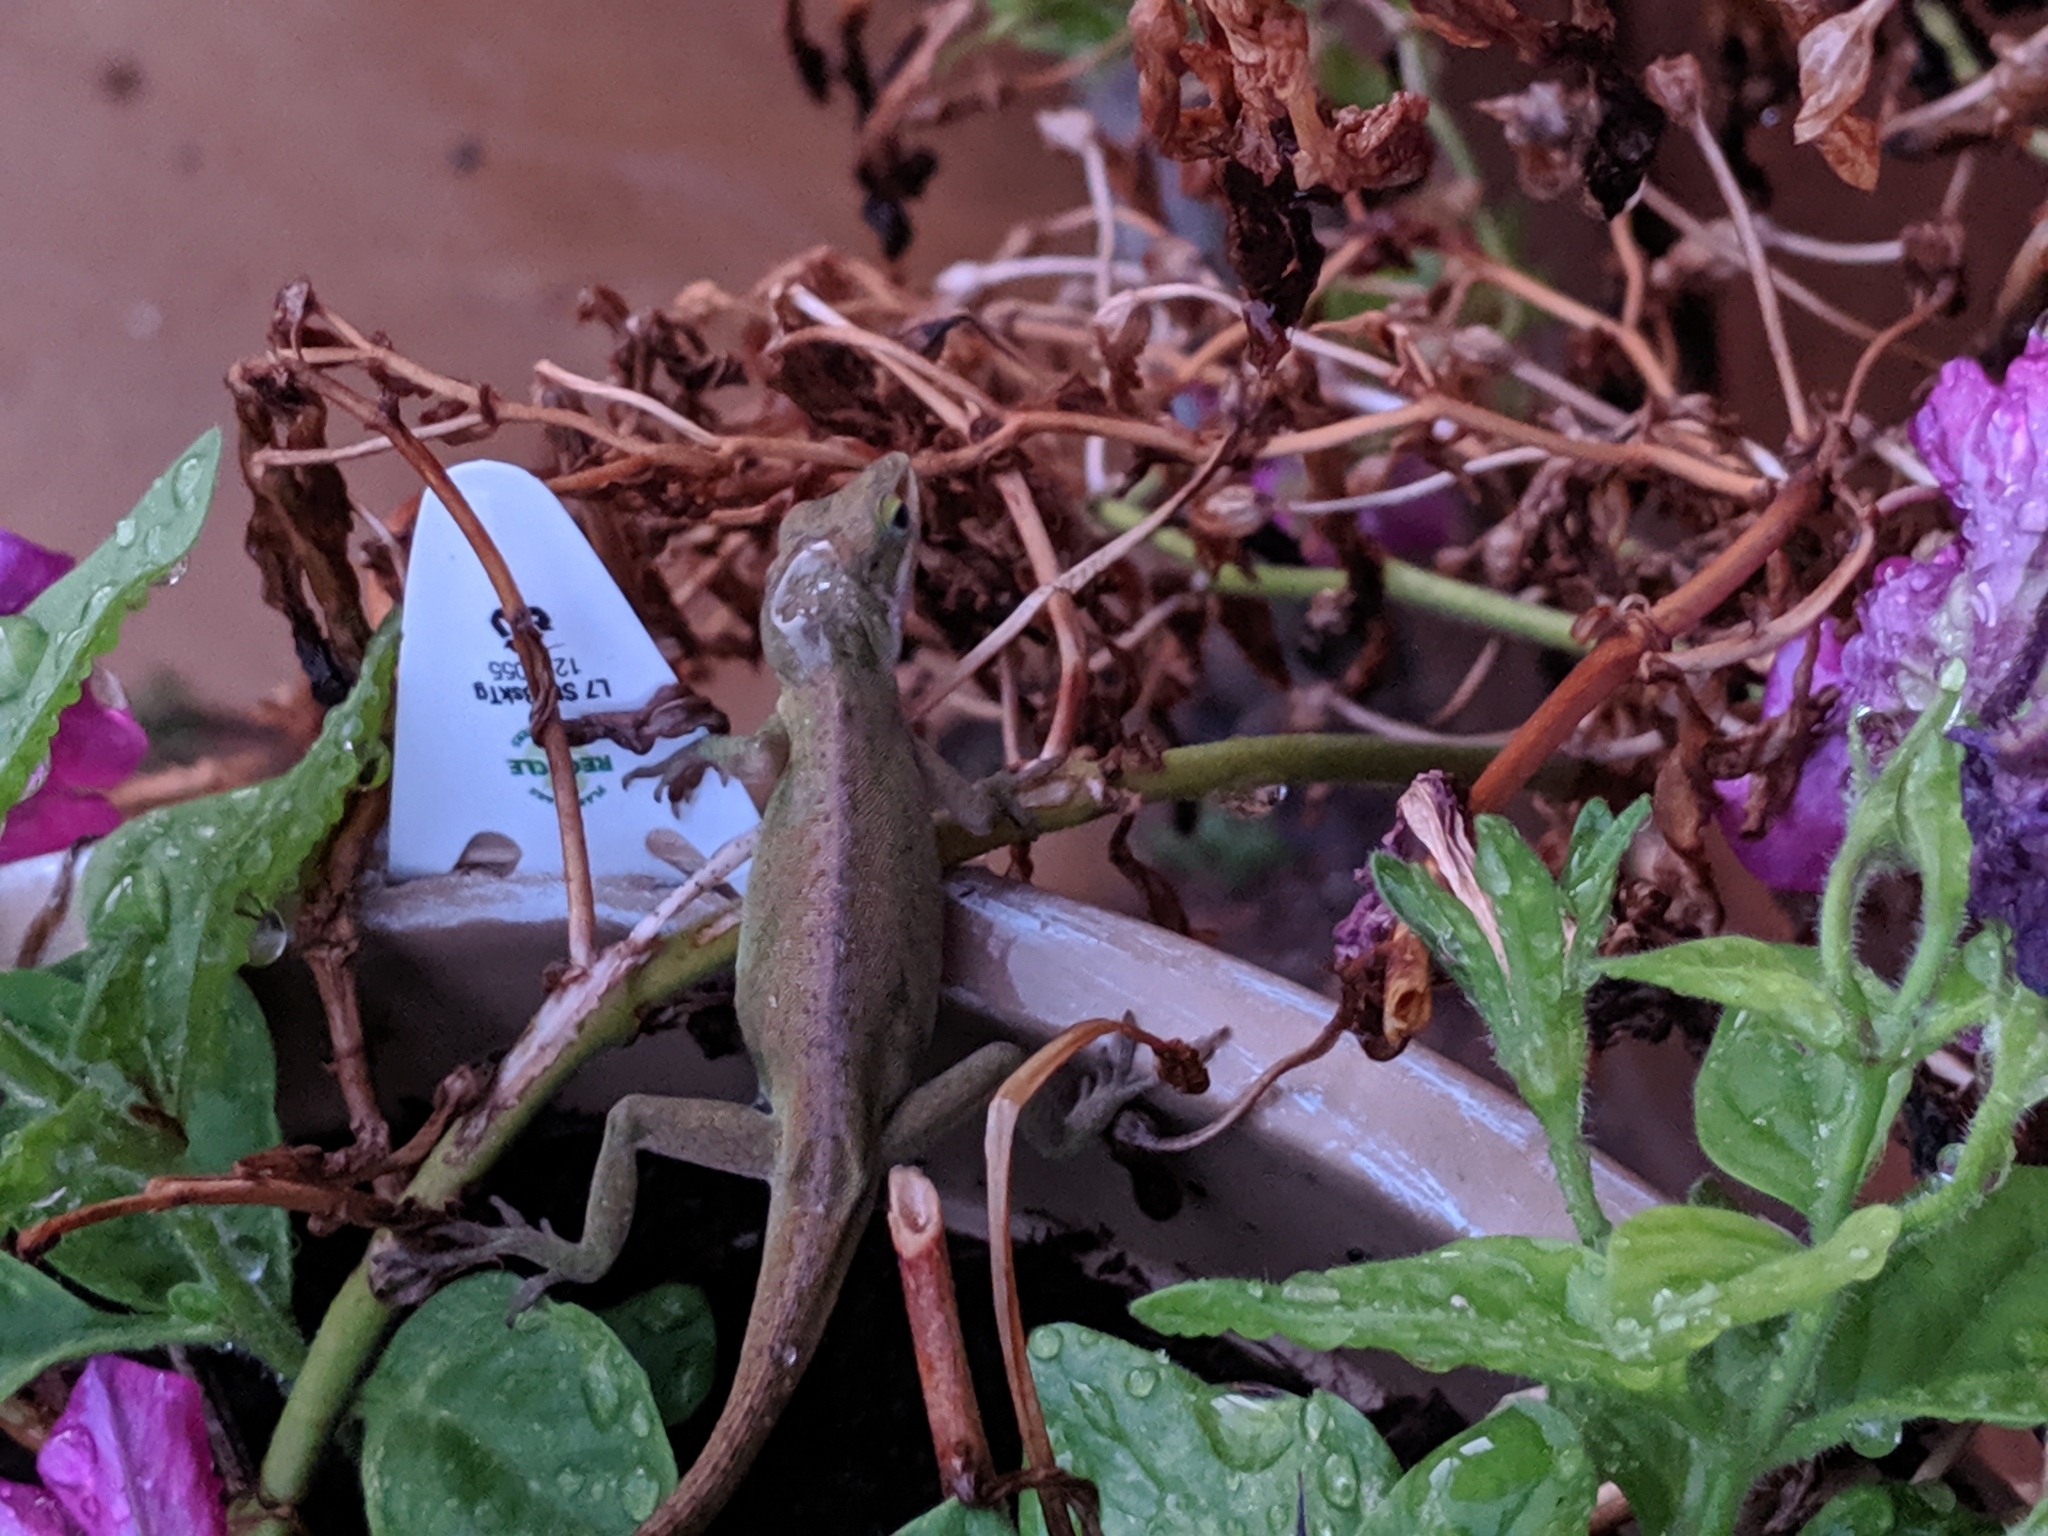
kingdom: Animalia
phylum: Chordata
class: Squamata
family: Dactyloidae
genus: Anolis
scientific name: Anolis carolinensis
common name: Green anole
